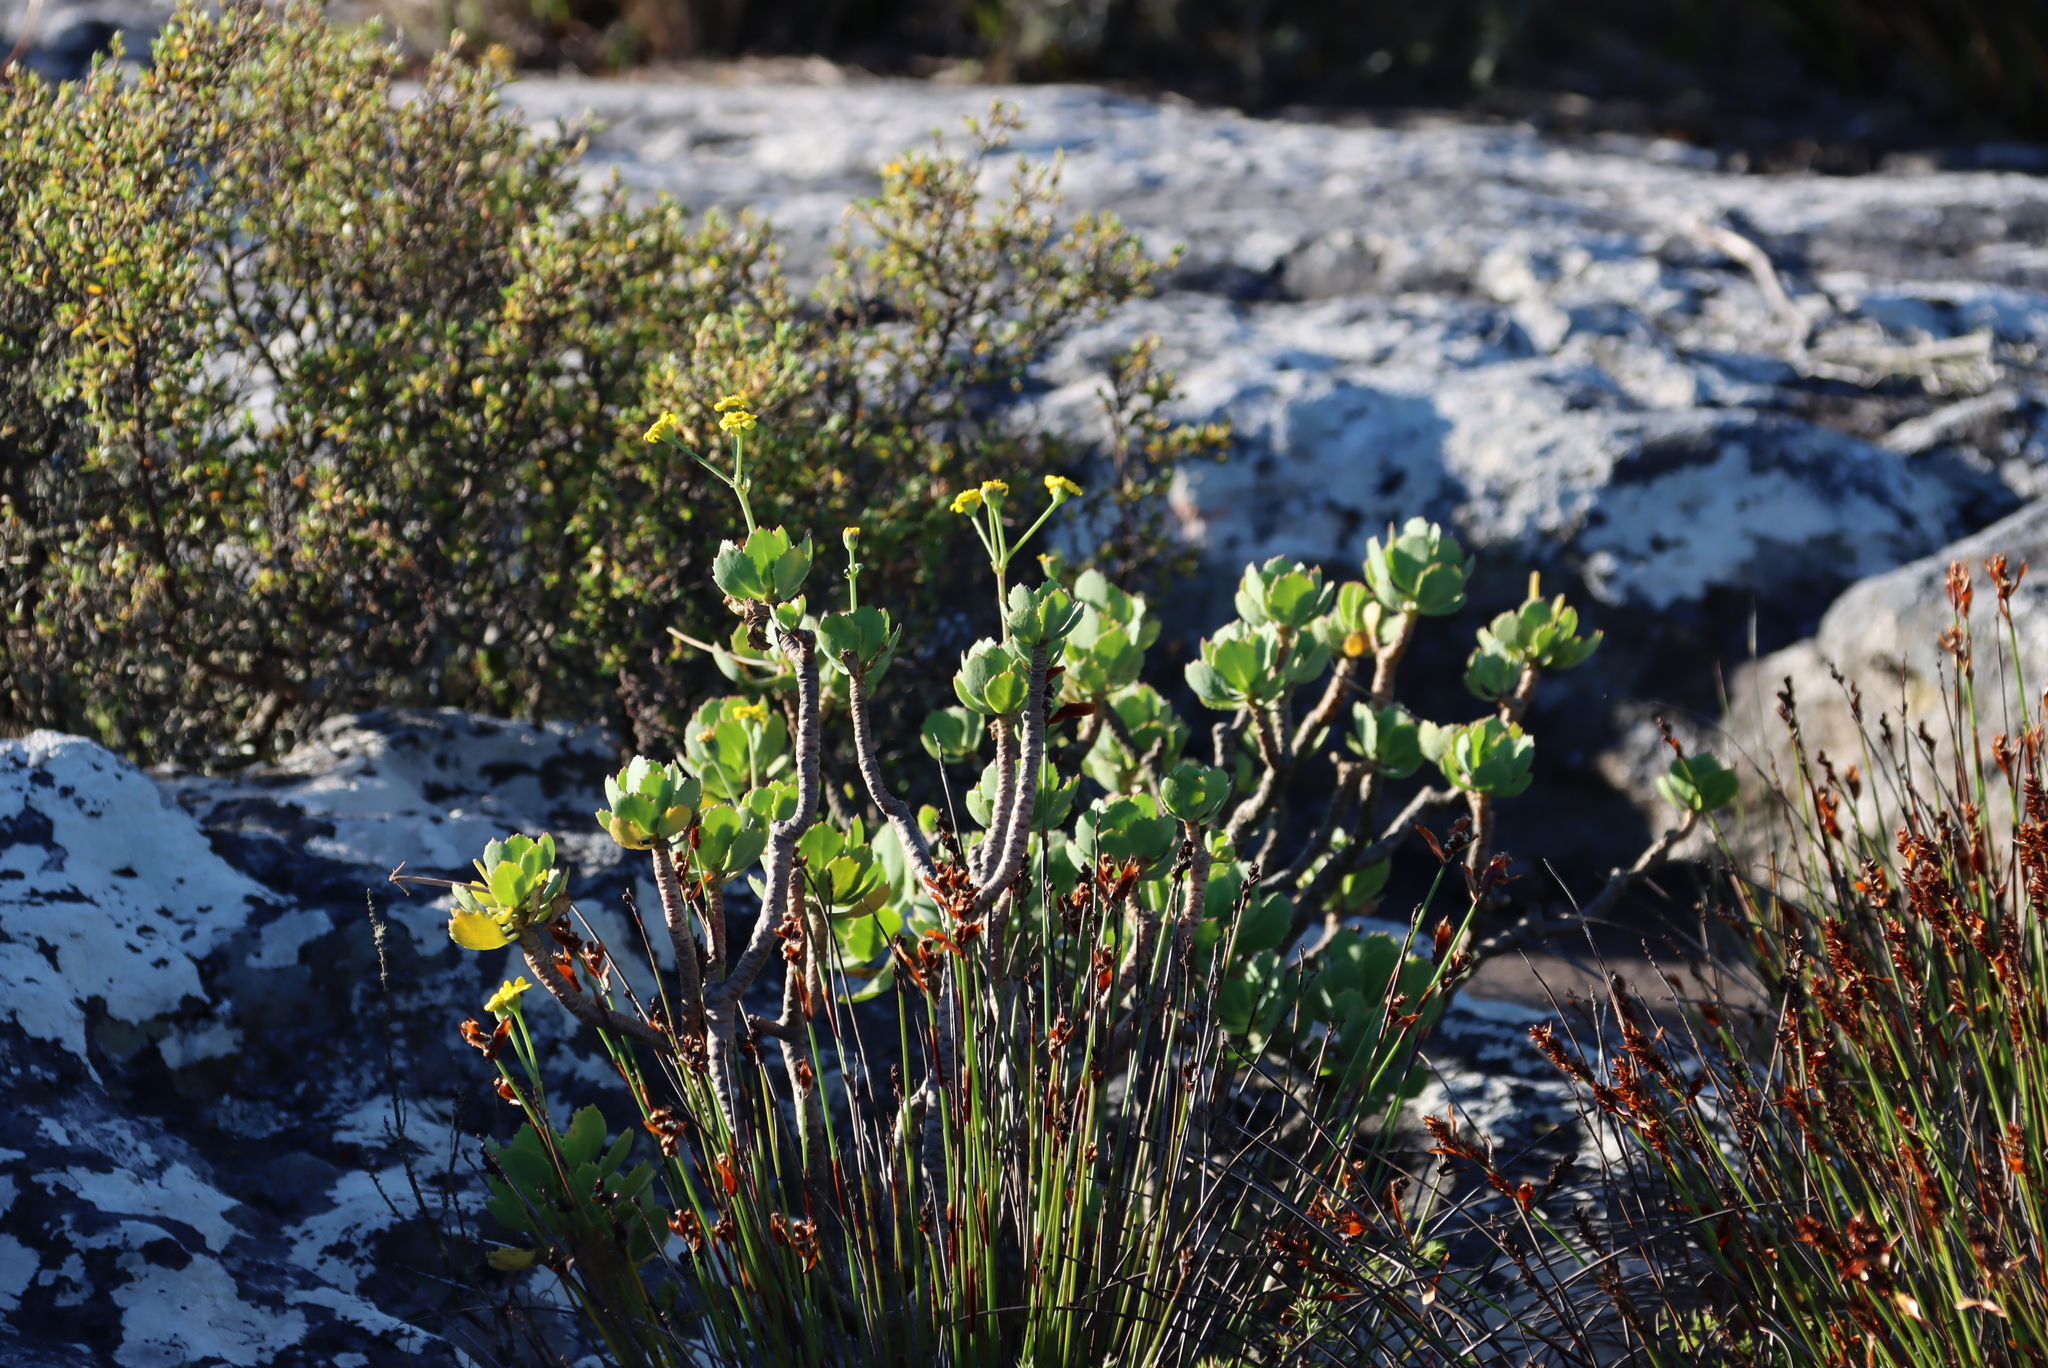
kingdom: Plantae
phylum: Tracheophyta
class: Magnoliopsida
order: Asterales
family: Asteraceae
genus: Othonna
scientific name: Othonna dentata
